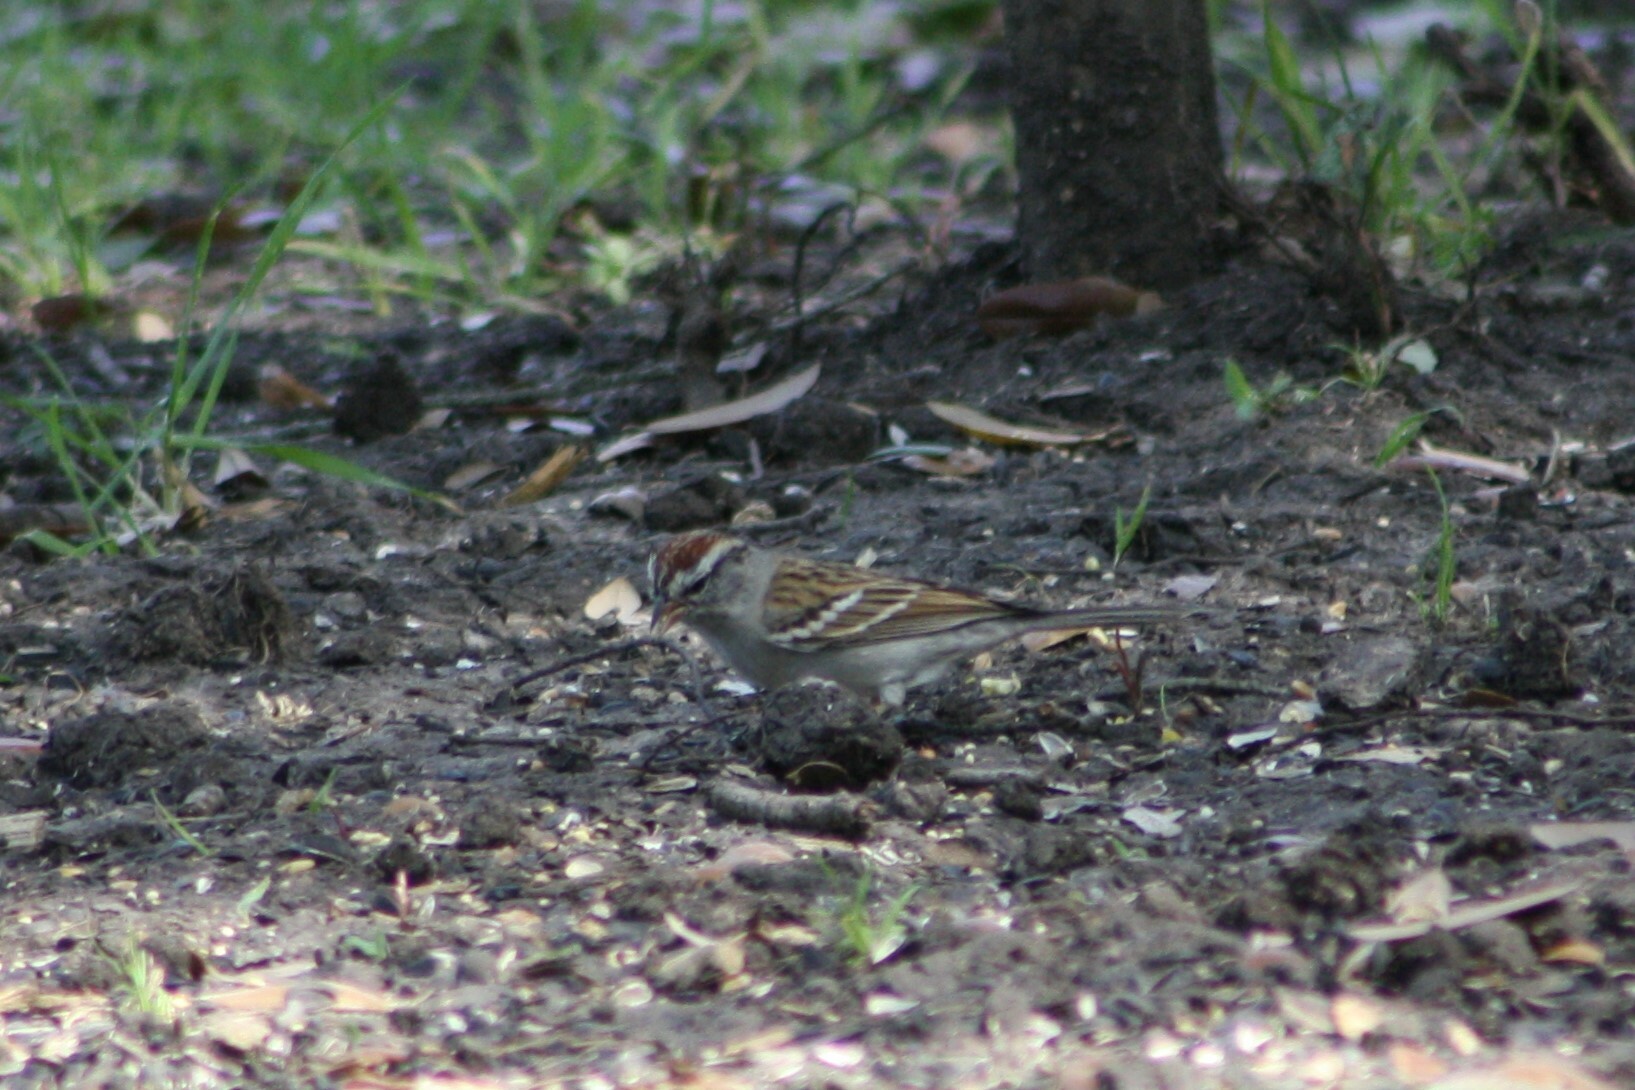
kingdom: Animalia
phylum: Chordata
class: Aves
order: Passeriformes
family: Passerellidae
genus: Spizella
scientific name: Spizella passerina
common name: Chipping sparrow
